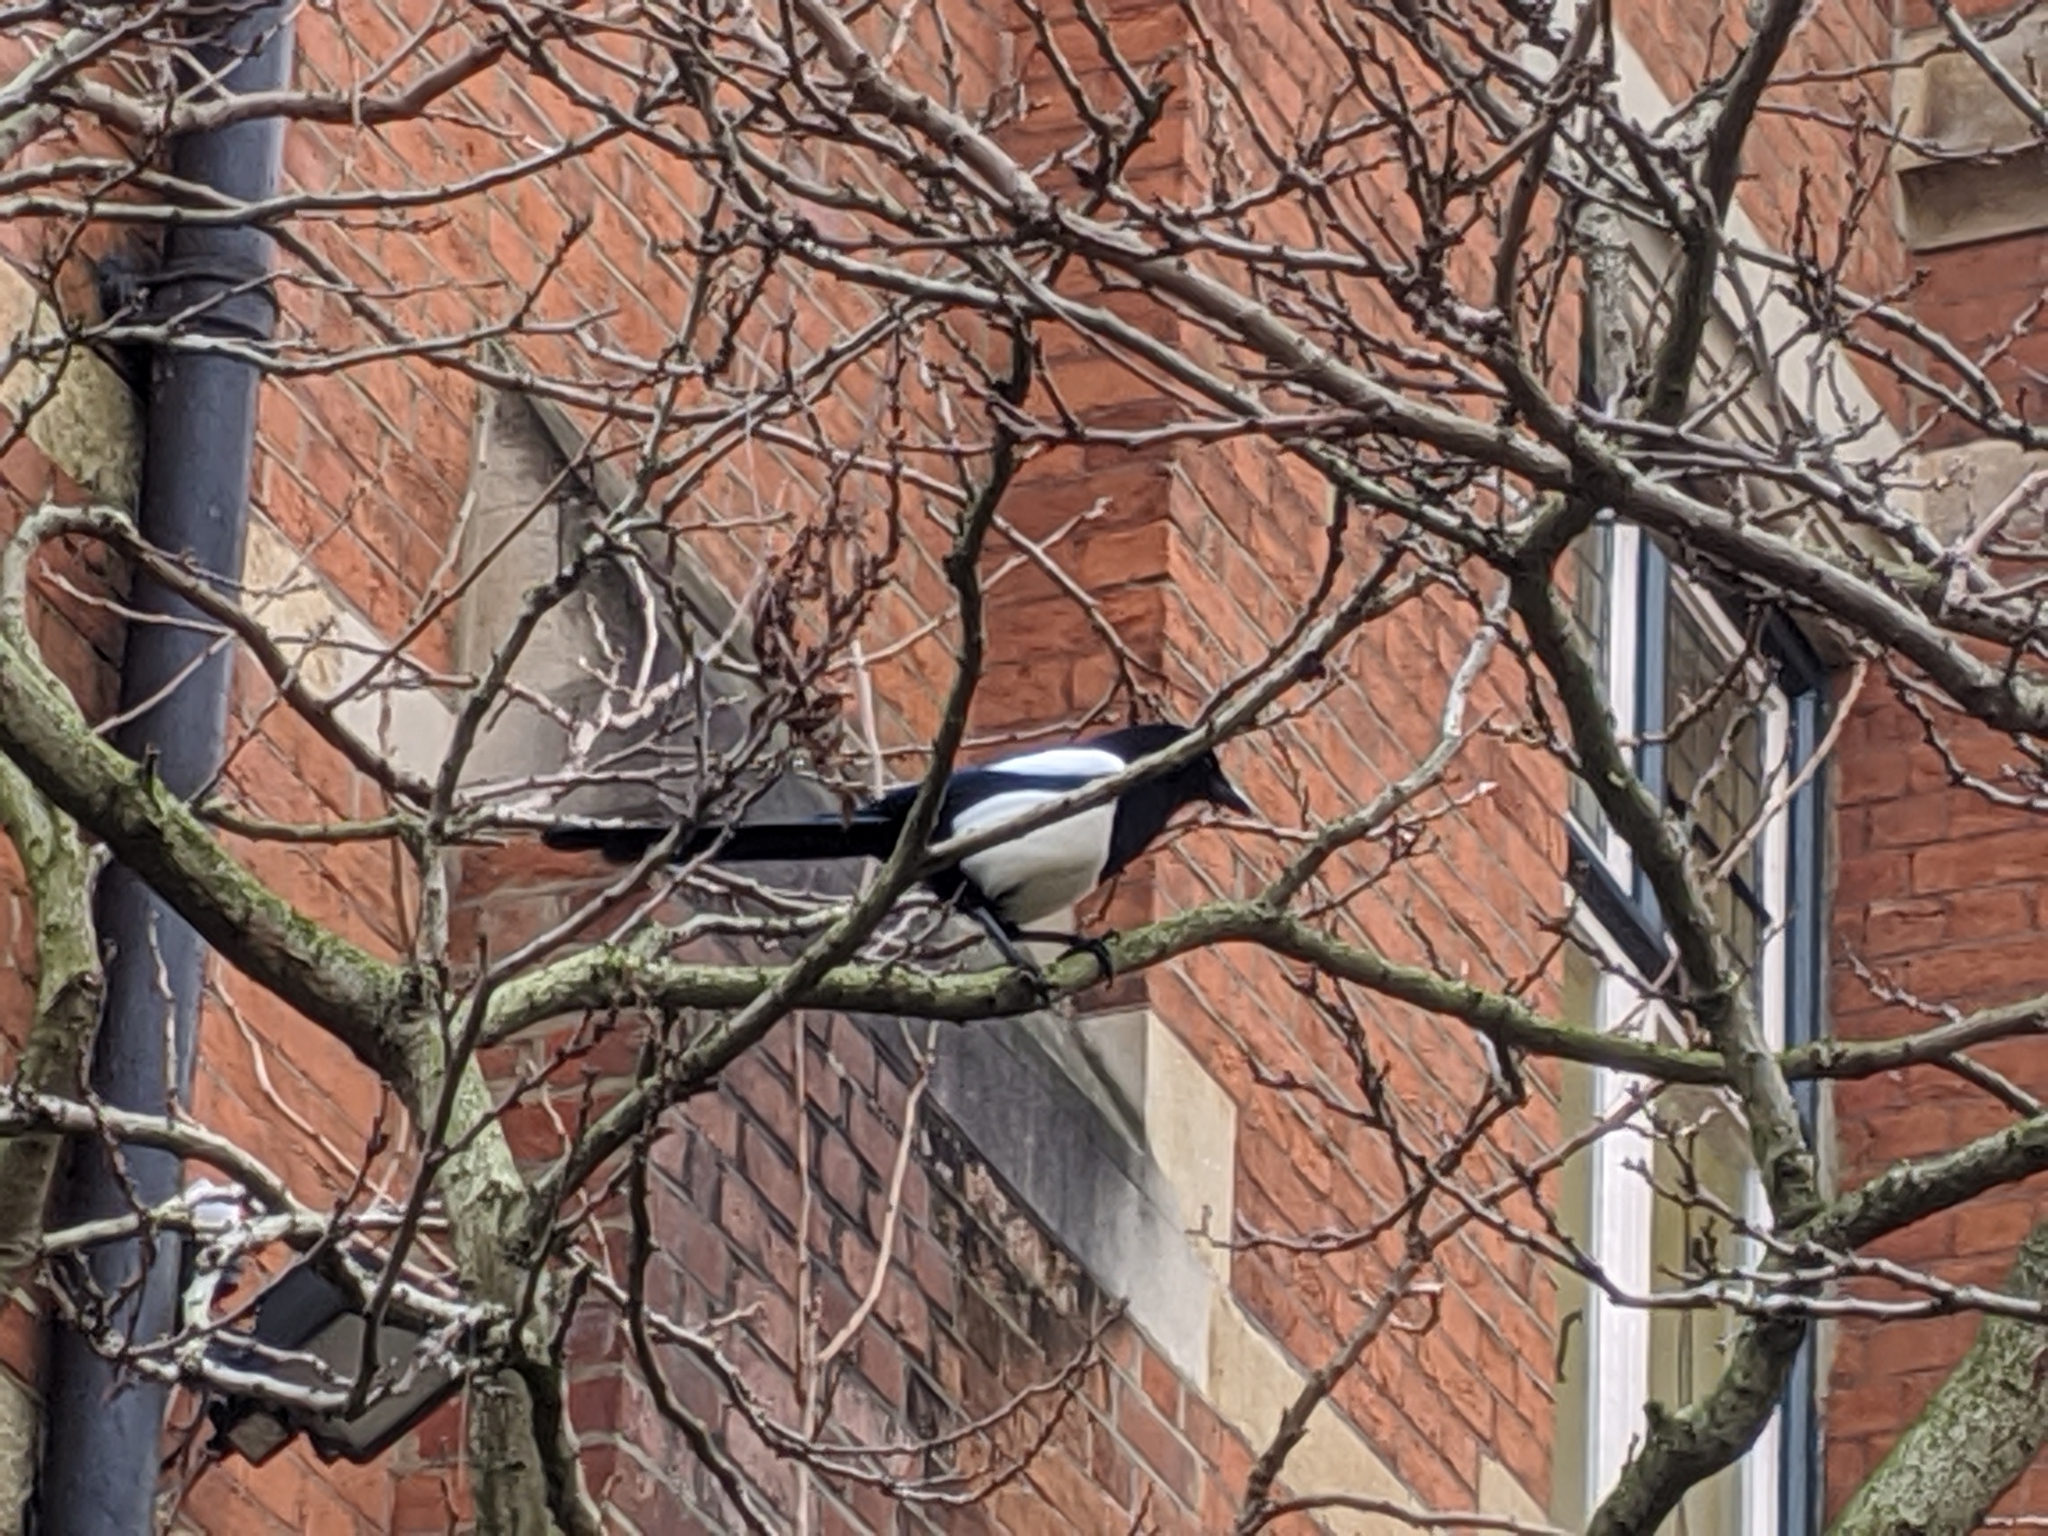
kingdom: Animalia
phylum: Chordata
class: Aves
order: Passeriformes
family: Corvidae
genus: Pica
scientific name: Pica pica
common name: Eurasian magpie
